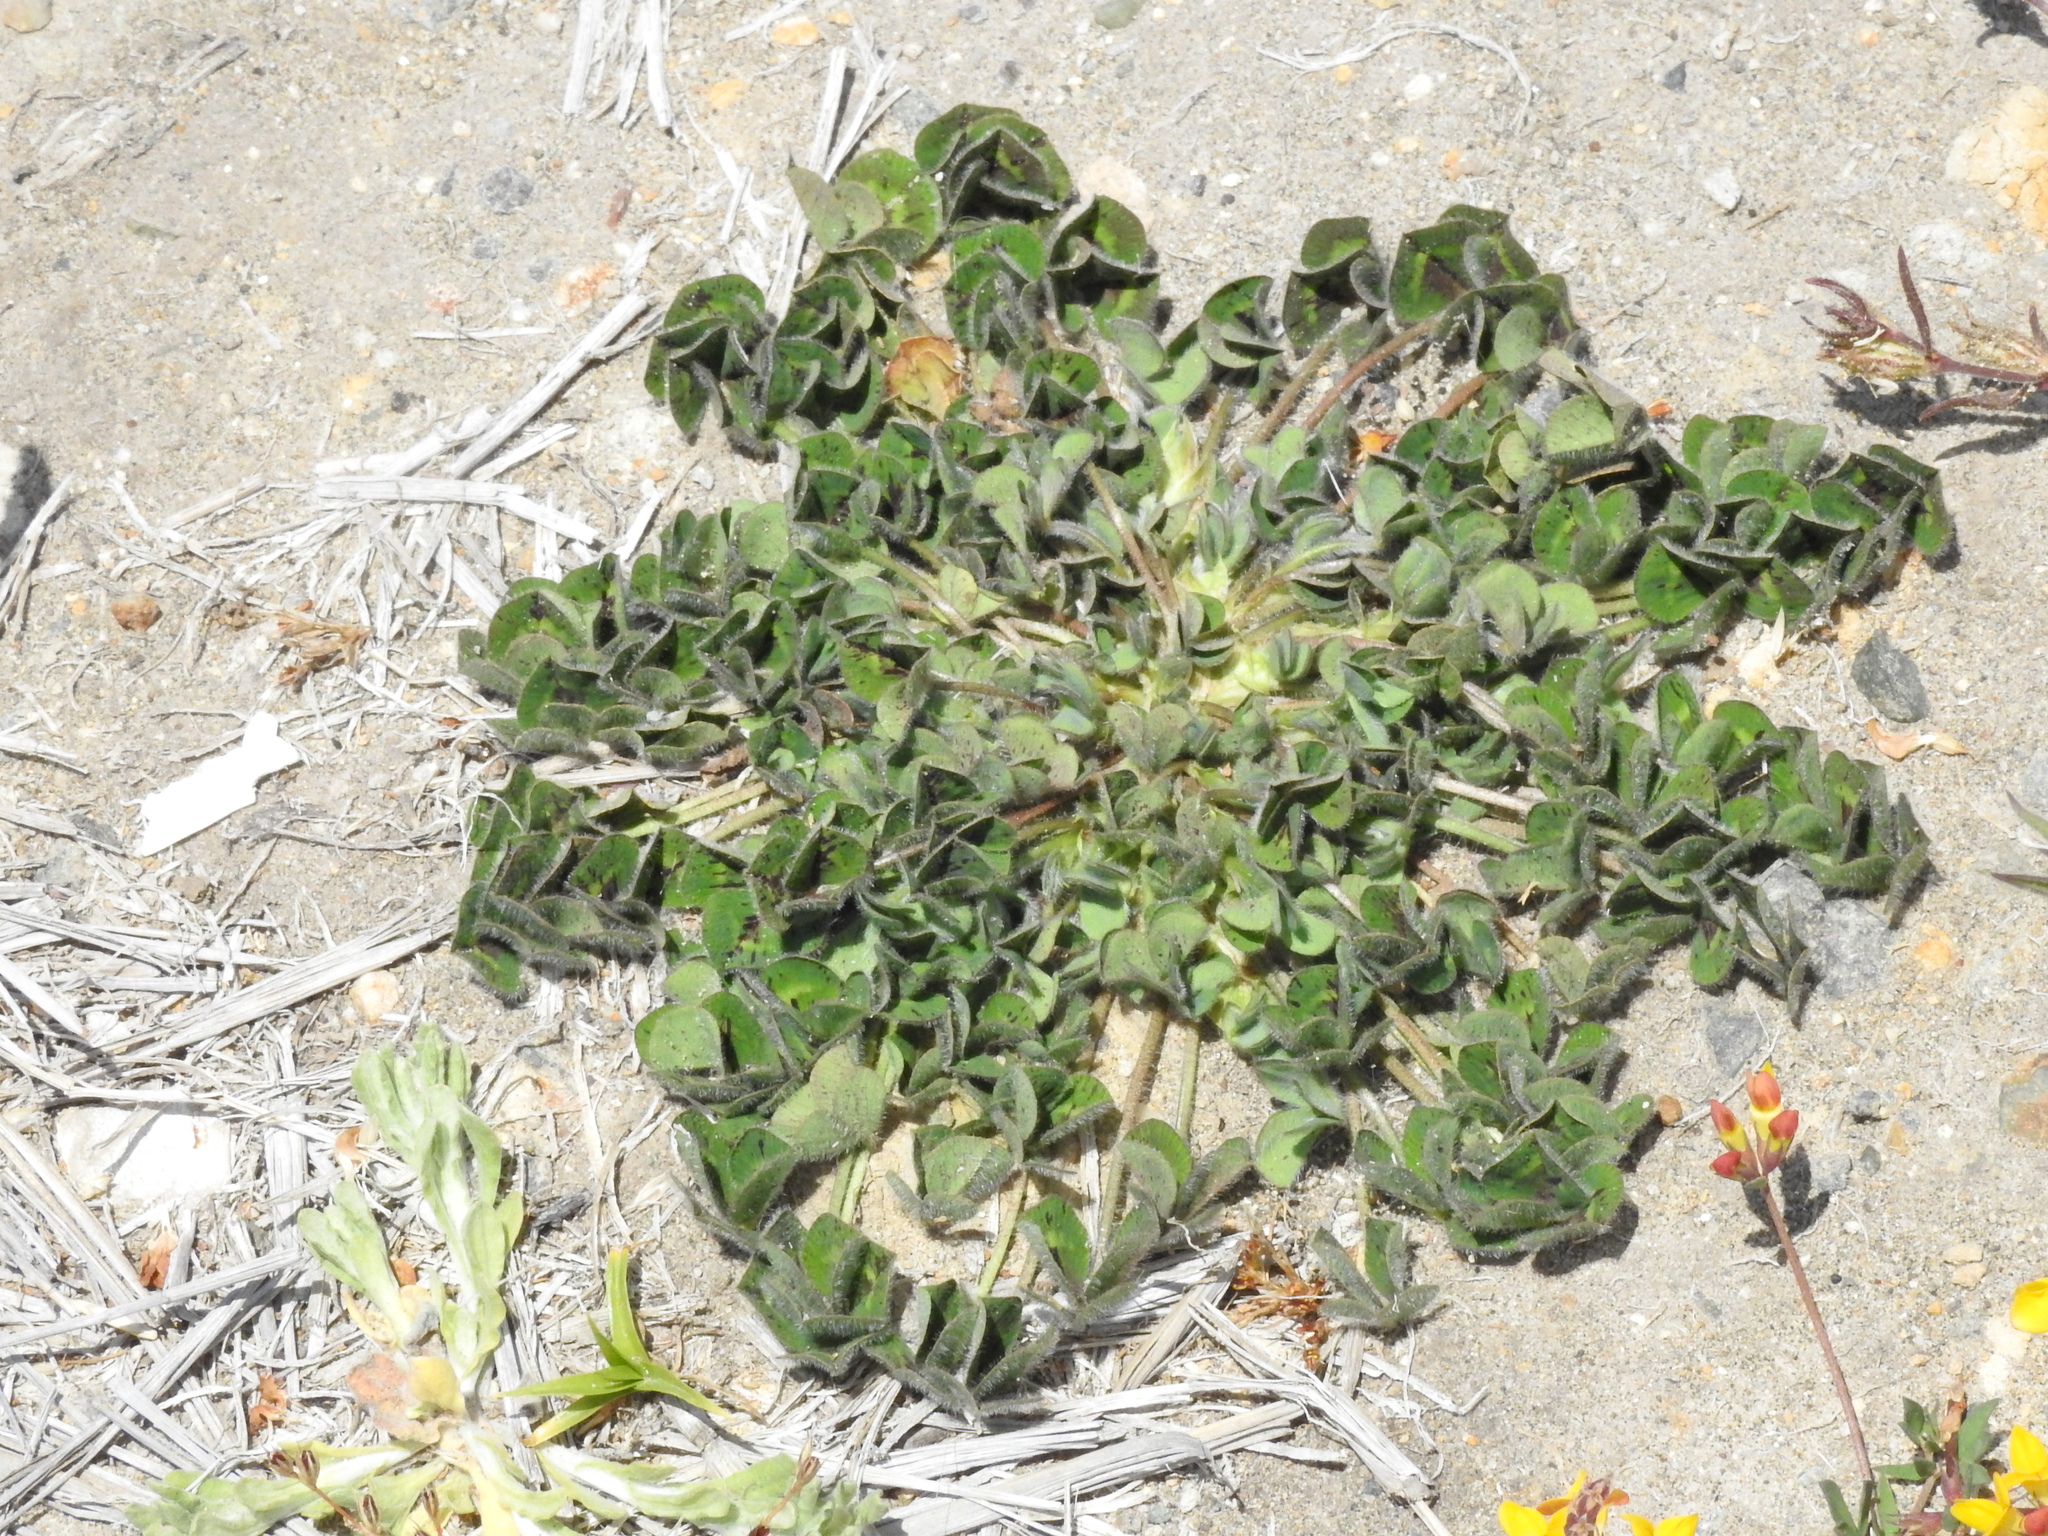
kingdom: Plantae
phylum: Tracheophyta
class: Magnoliopsida
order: Fabales
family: Fabaceae
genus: Trifolium
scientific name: Trifolium subterraneum
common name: Subterranean clover
